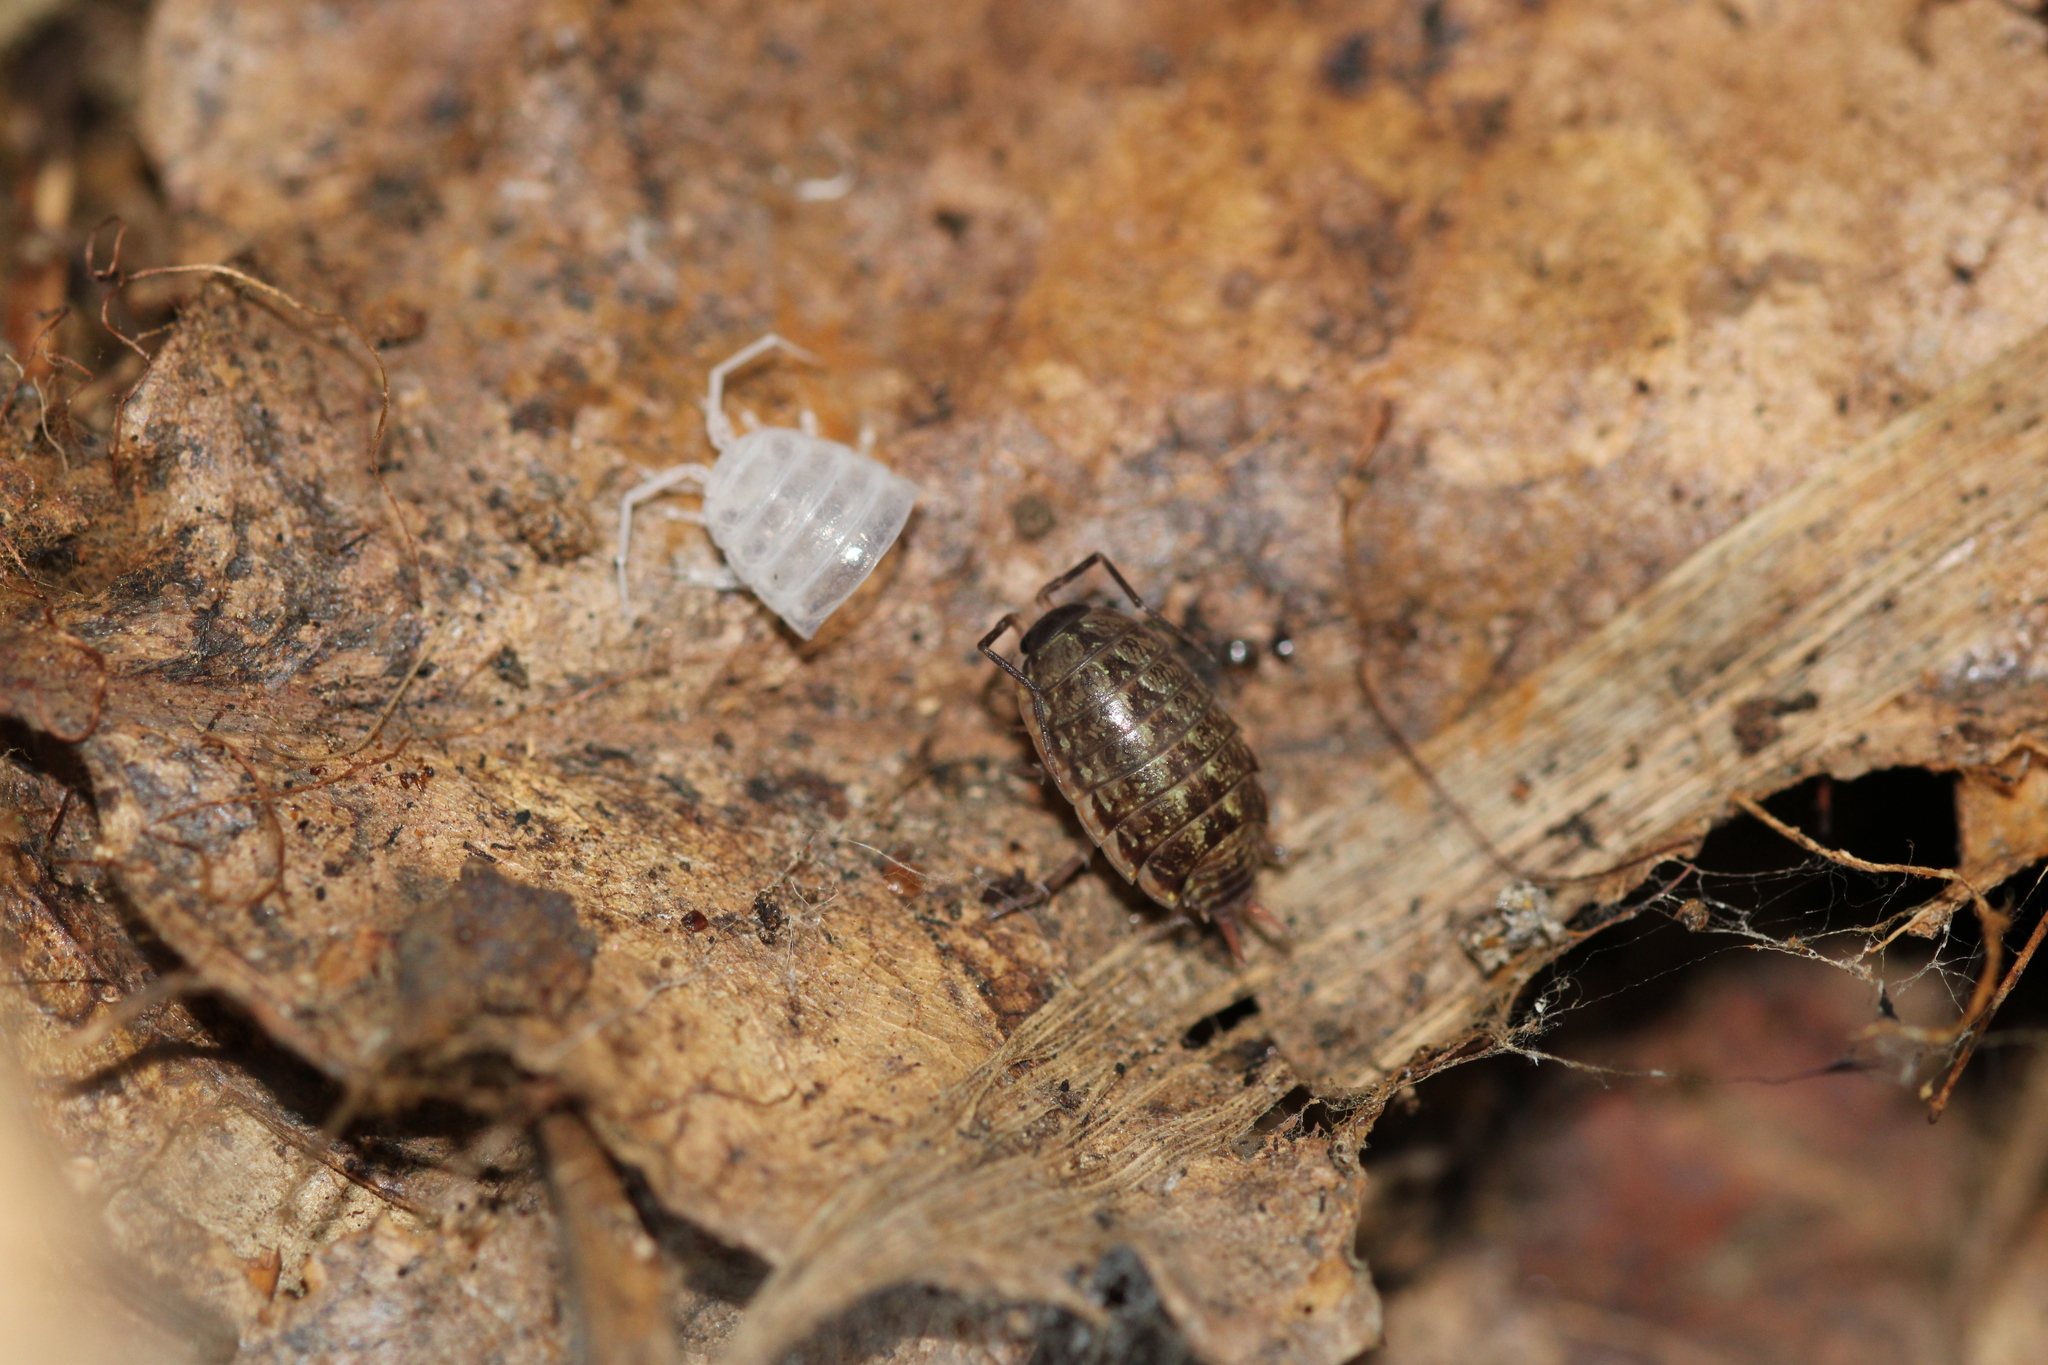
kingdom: Animalia
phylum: Arthropoda
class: Malacostraca
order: Isopoda
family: Philosciidae
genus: Philoscia
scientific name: Philoscia muscorum
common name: Common striped woodlouse
